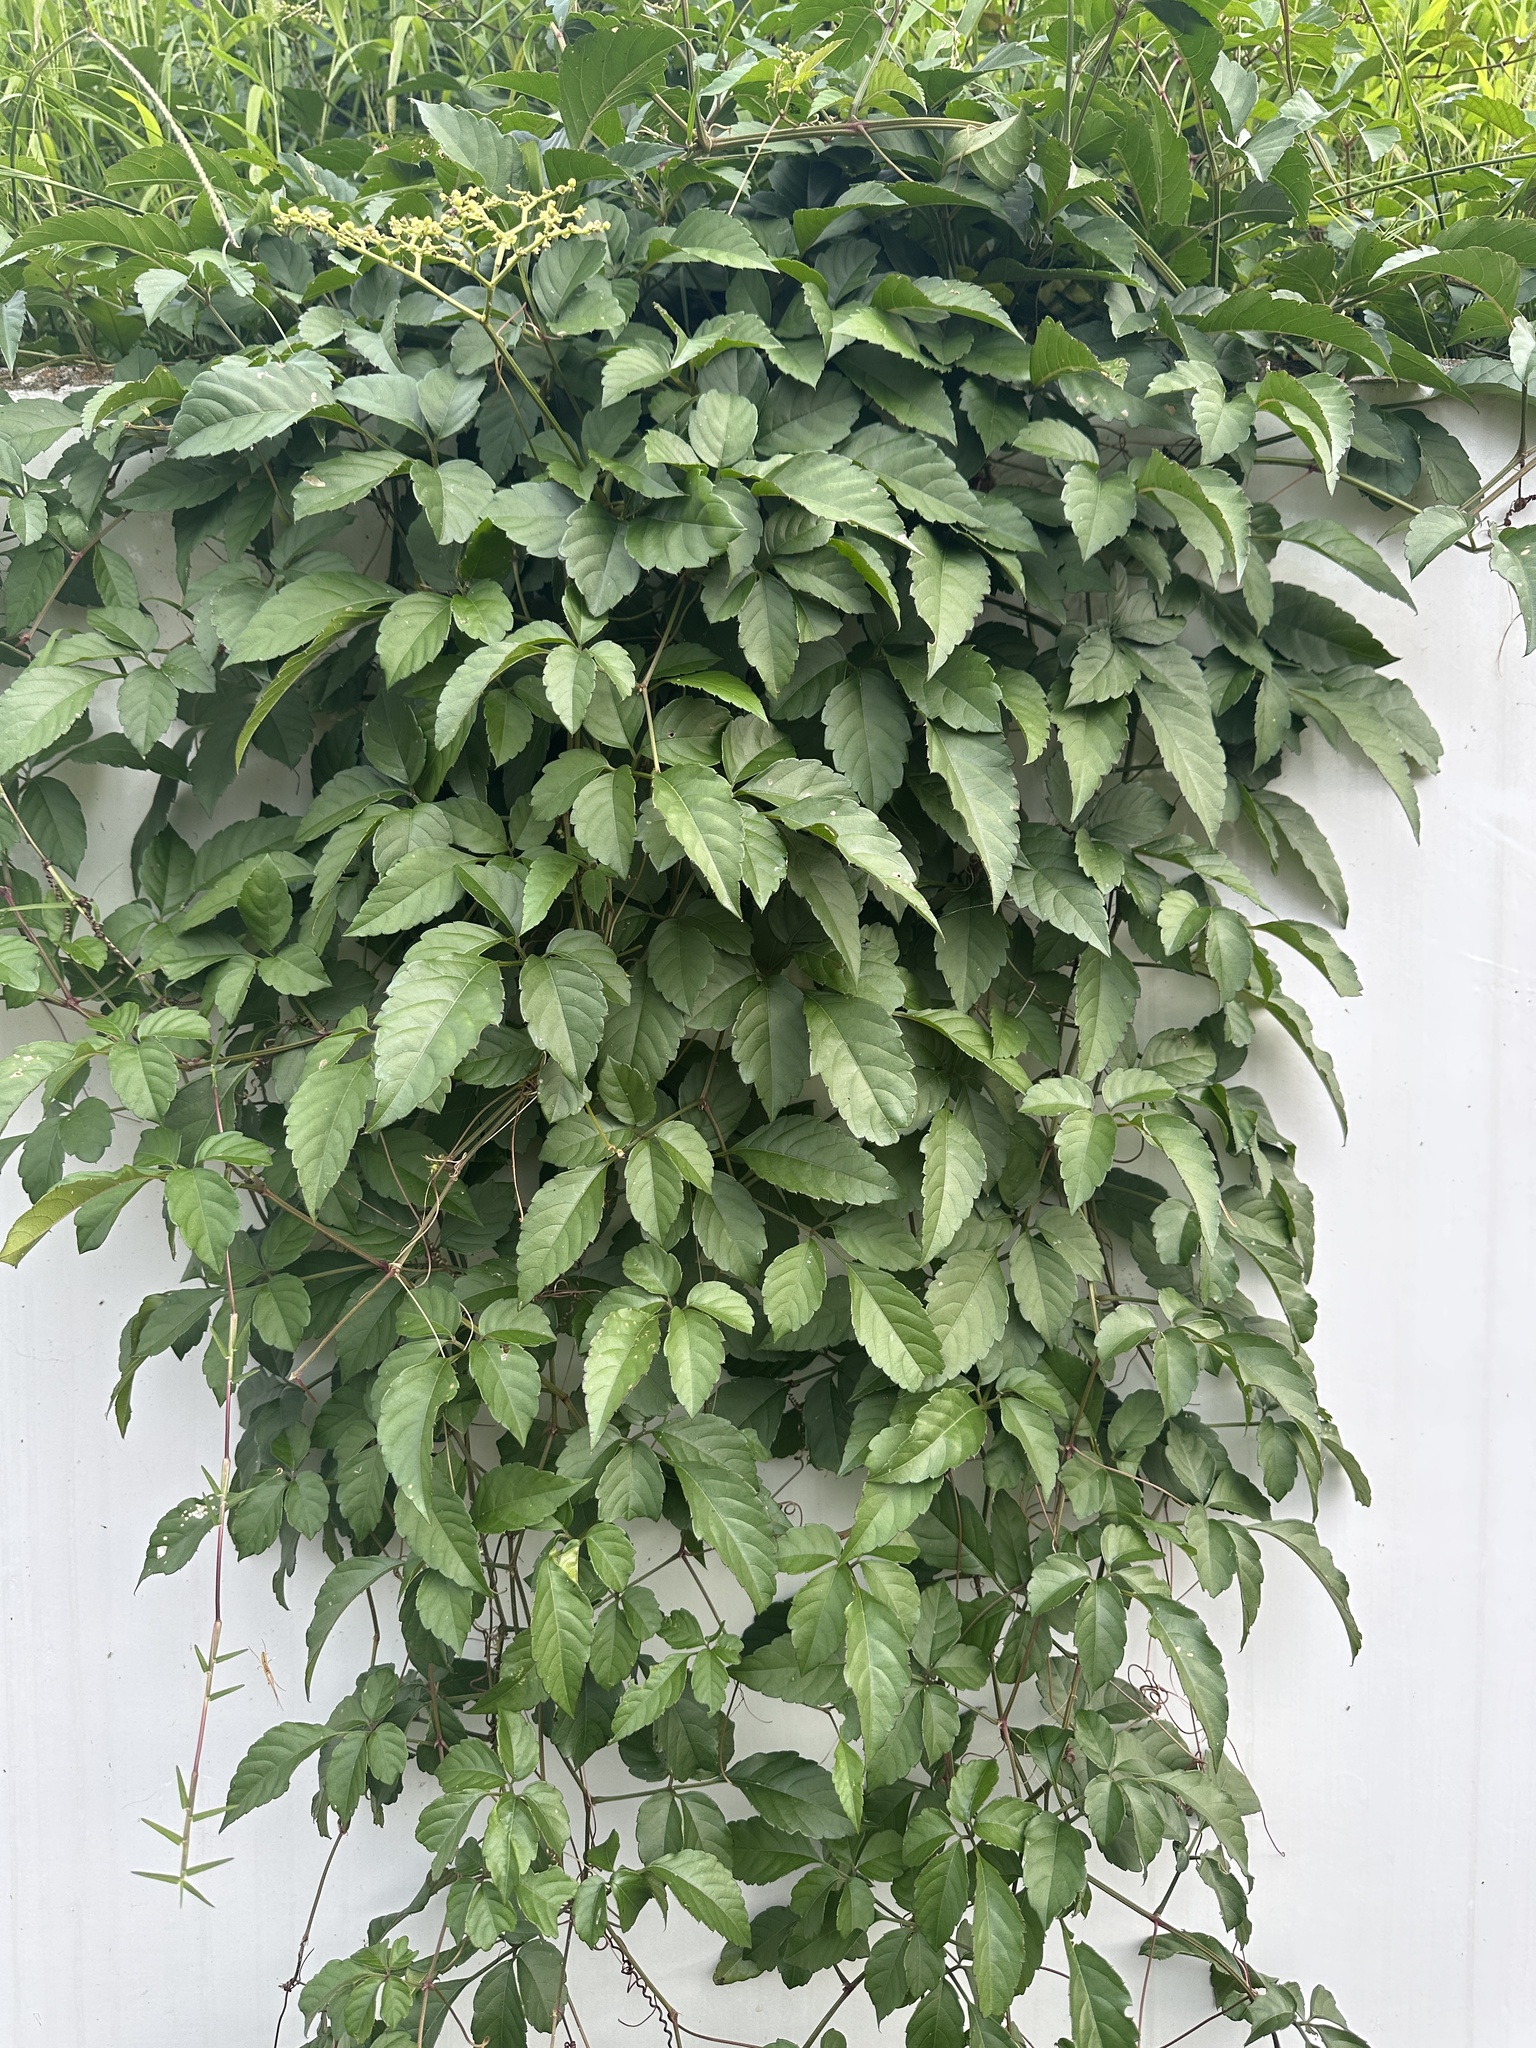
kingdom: Plantae
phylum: Tracheophyta
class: Magnoliopsida
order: Vitales
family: Vitaceae
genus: Causonis
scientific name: Causonis japonica
